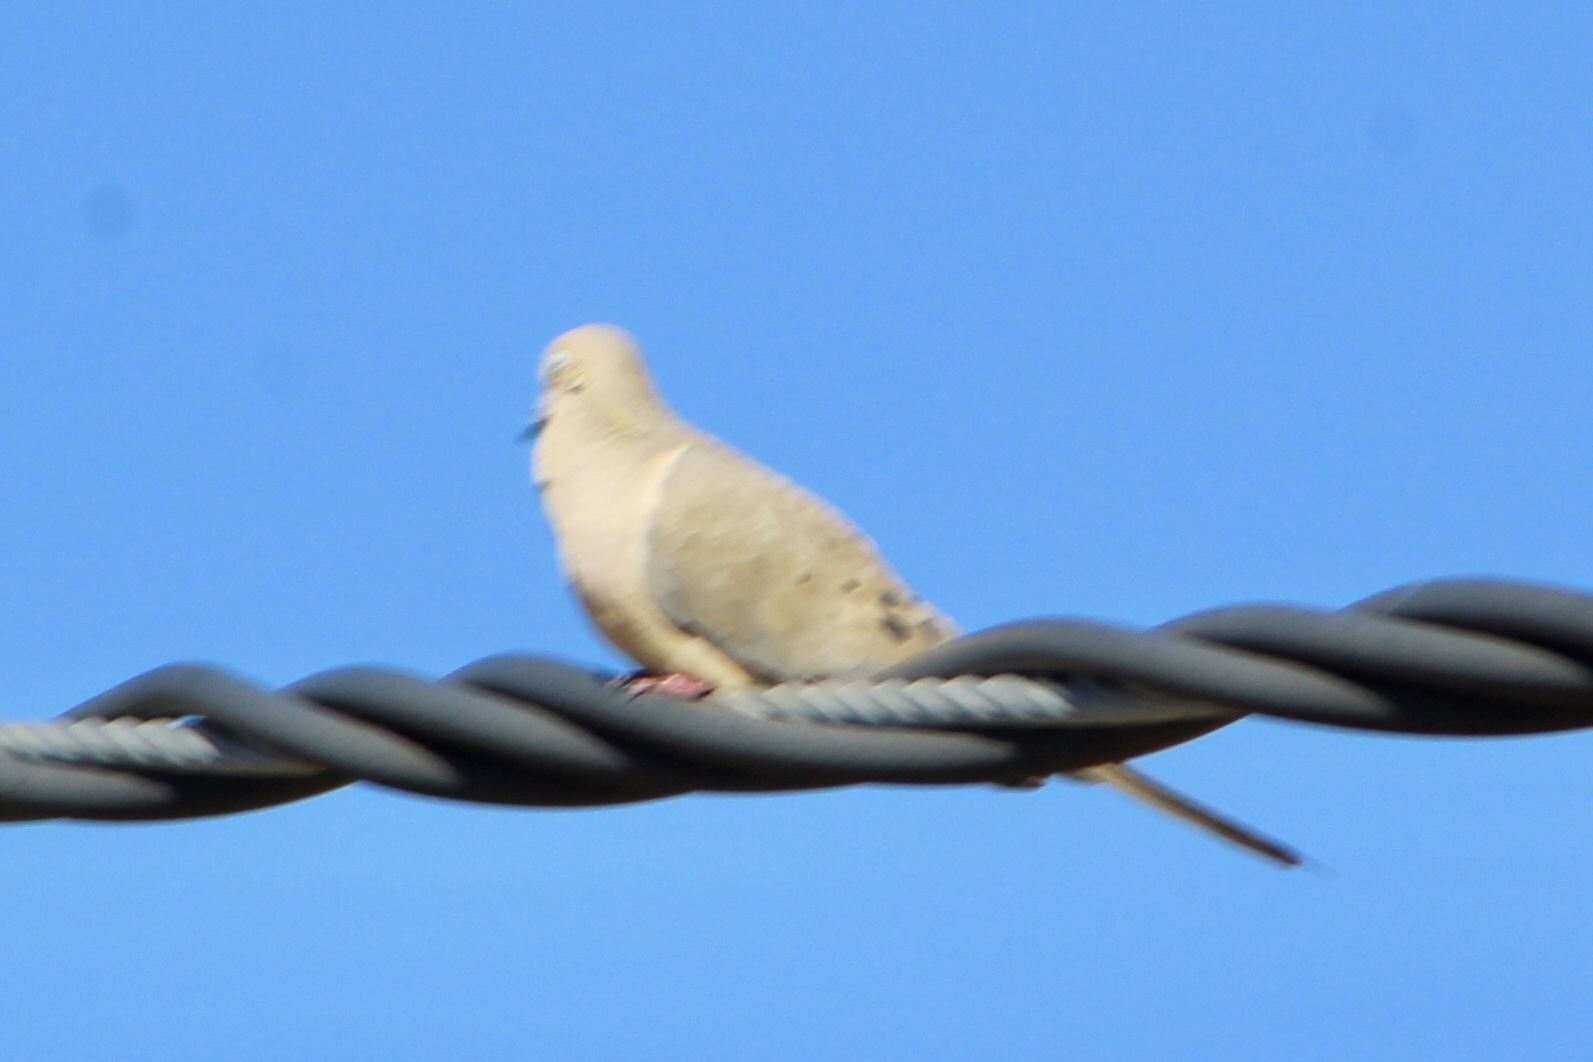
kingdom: Animalia
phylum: Chordata
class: Aves
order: Columbiformes
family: Columbidae
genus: Zenaida
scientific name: Zenaida macroura
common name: Mourning dove
